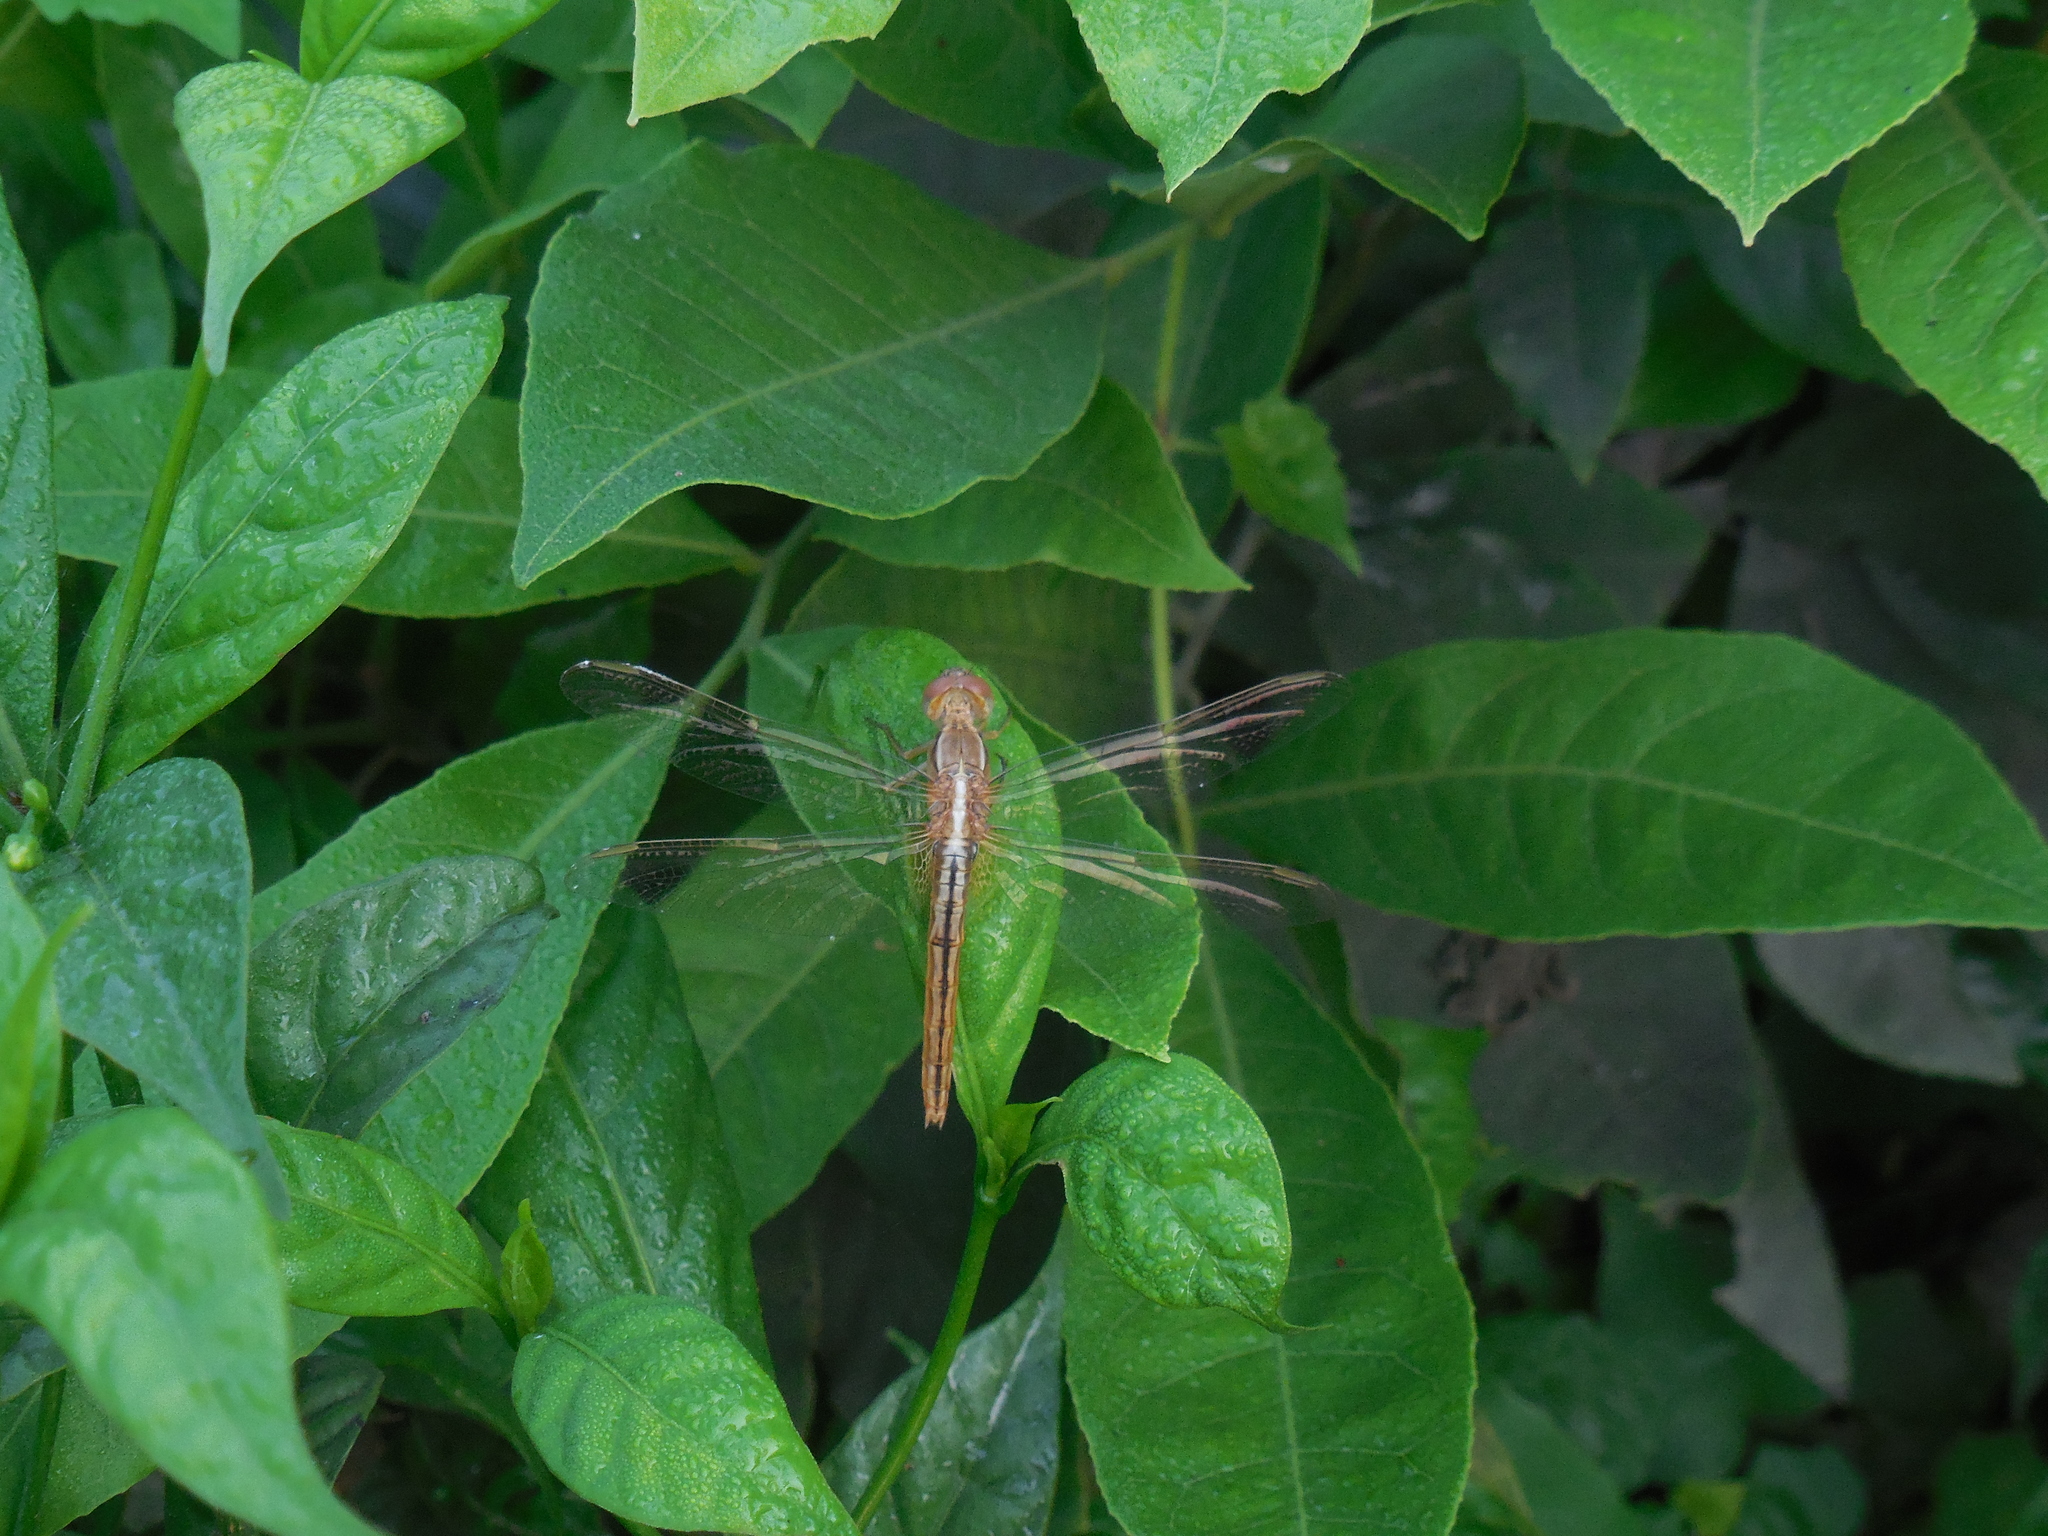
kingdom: Animalia
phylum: Arthropoda
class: Insecta
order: Odonata
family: Libellulidae
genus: Crocothemis
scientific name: Crocothemis servilia
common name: Scarlet skimmer
